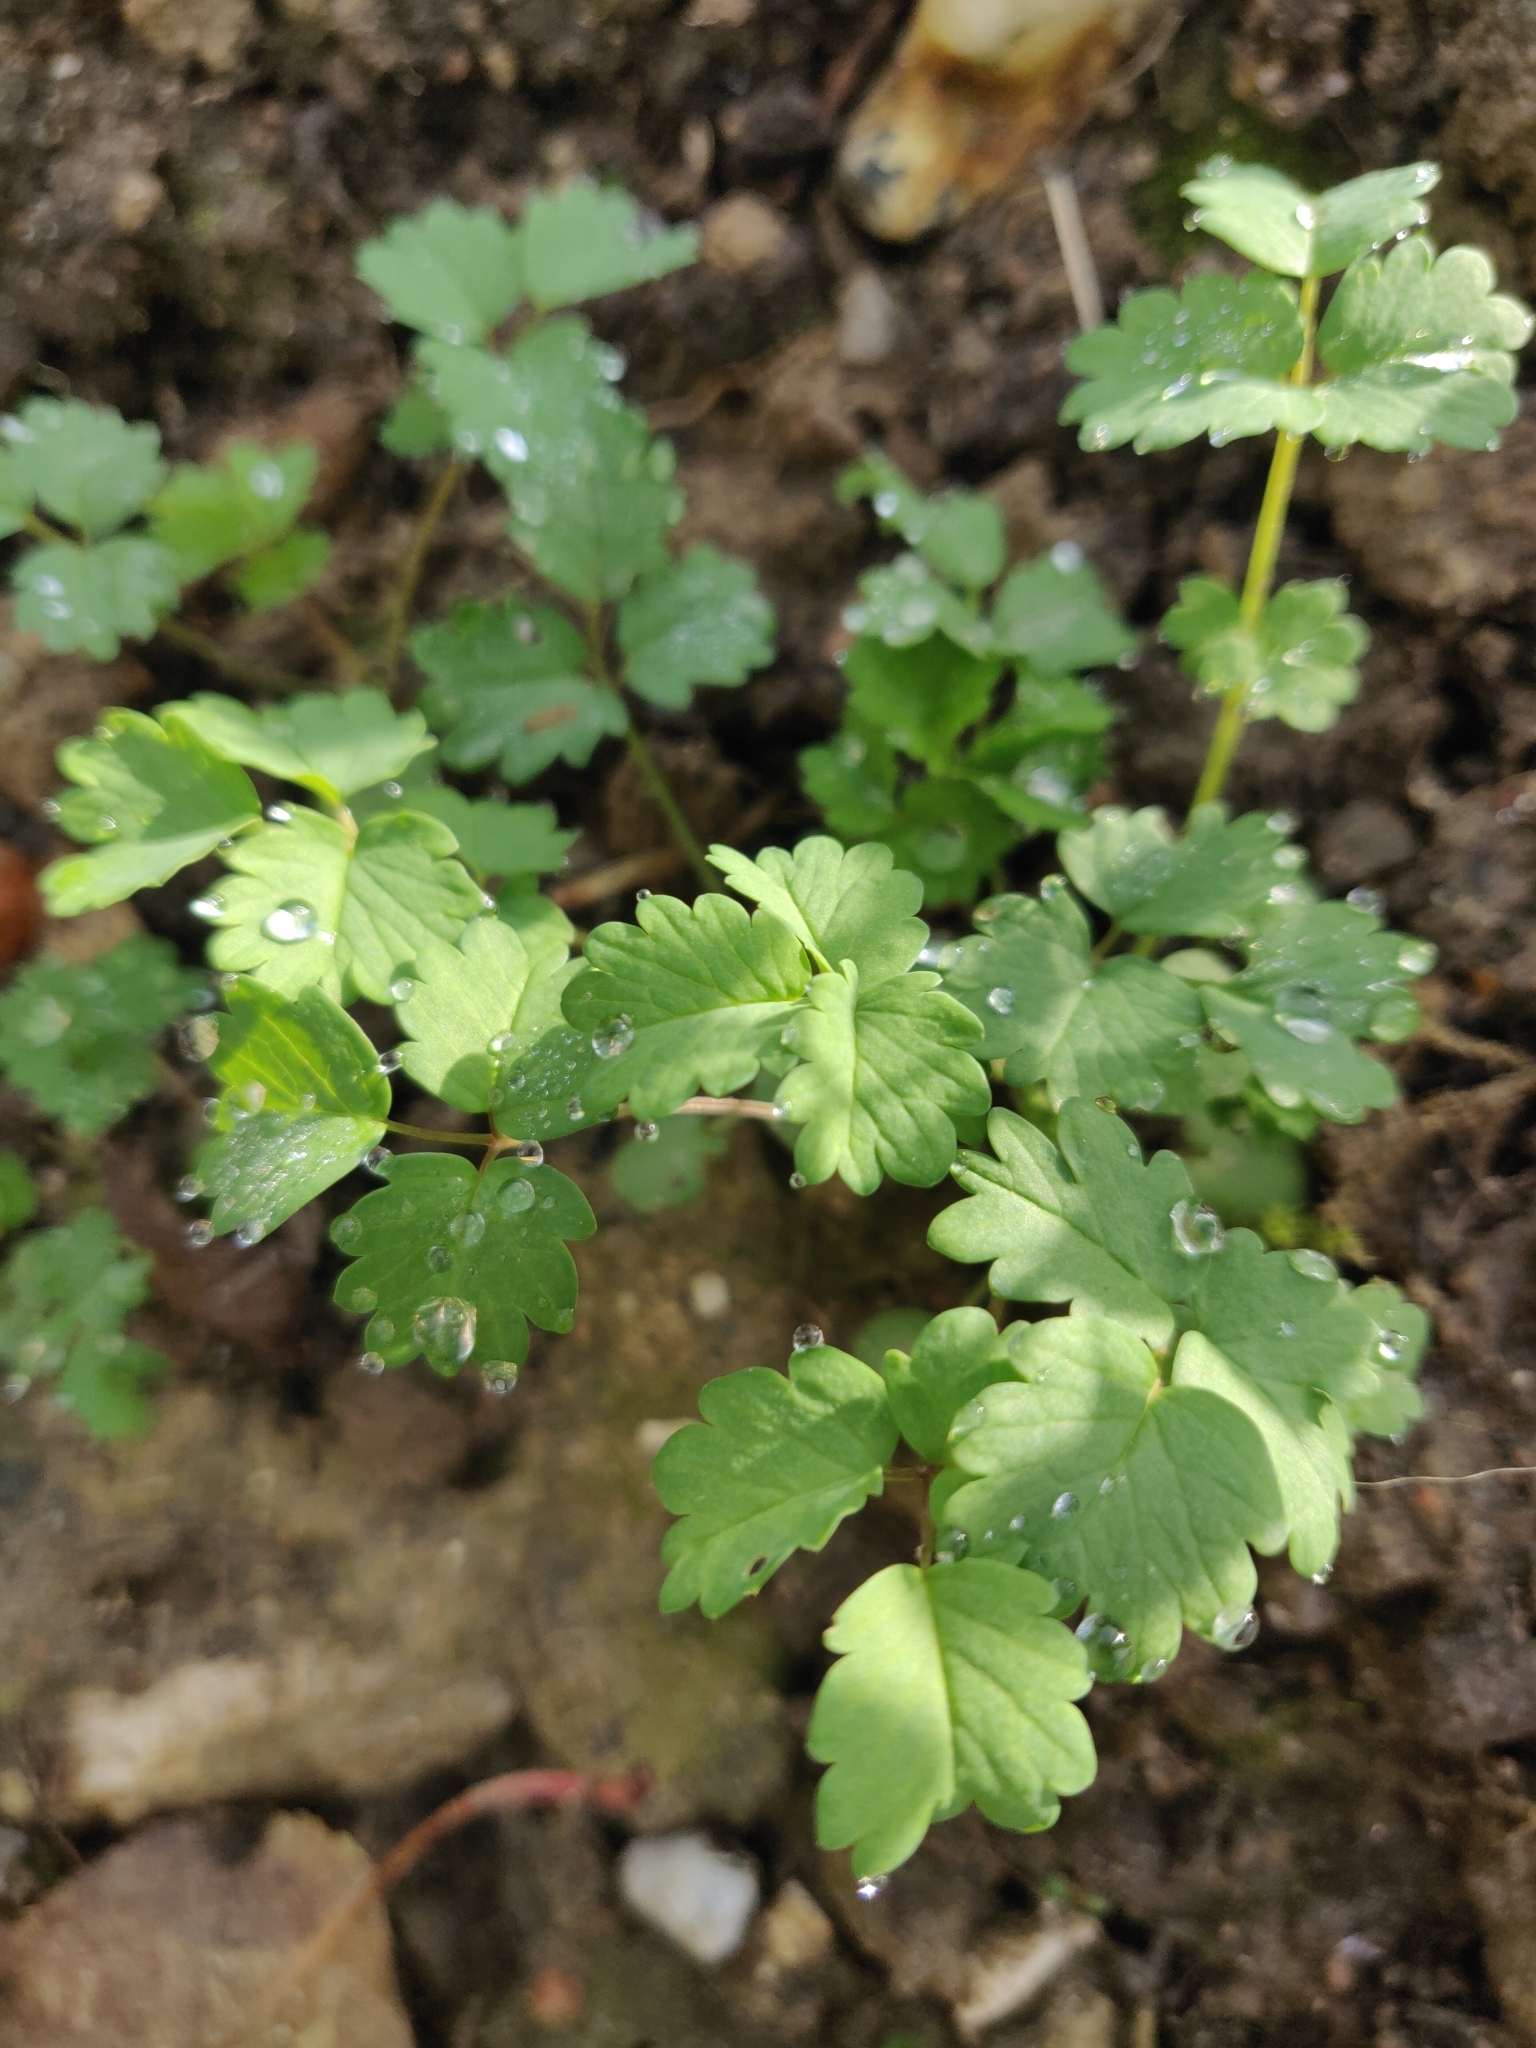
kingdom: Plantae
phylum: Tracheophyta
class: Magnoliopsida
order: Rosales
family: Rosaceae
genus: Poterium
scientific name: Poterium sanguisorba
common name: Salad burnet
